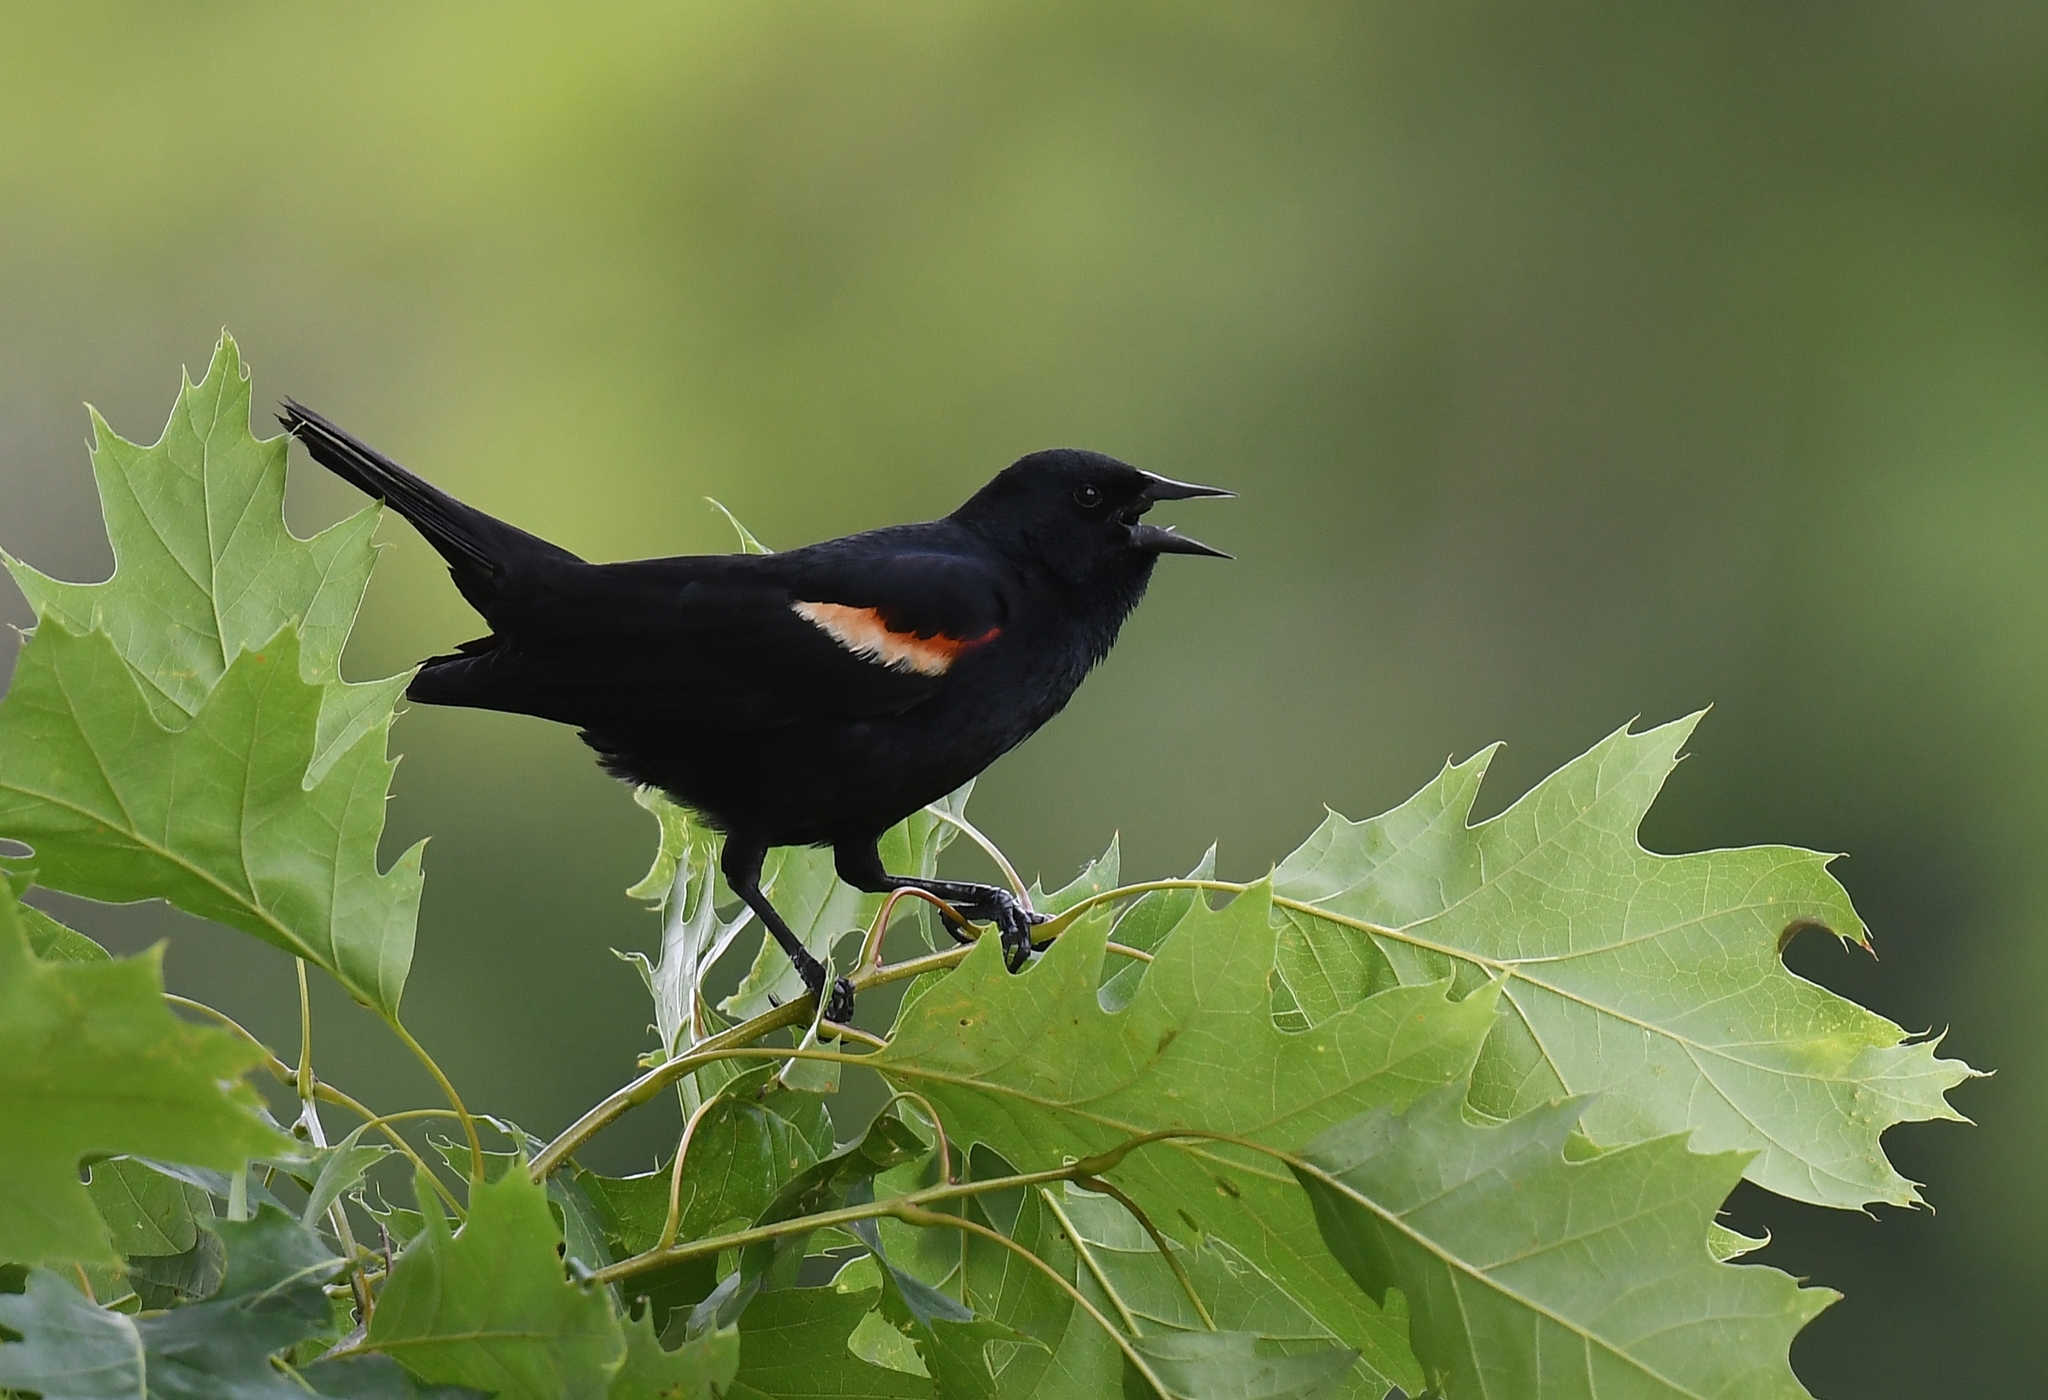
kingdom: Animalia
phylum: Chordata
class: Aves
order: Passeriformes
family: Icteridae
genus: Agelaius
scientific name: Agelaius phoeniceus
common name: Red-winged blackbird
